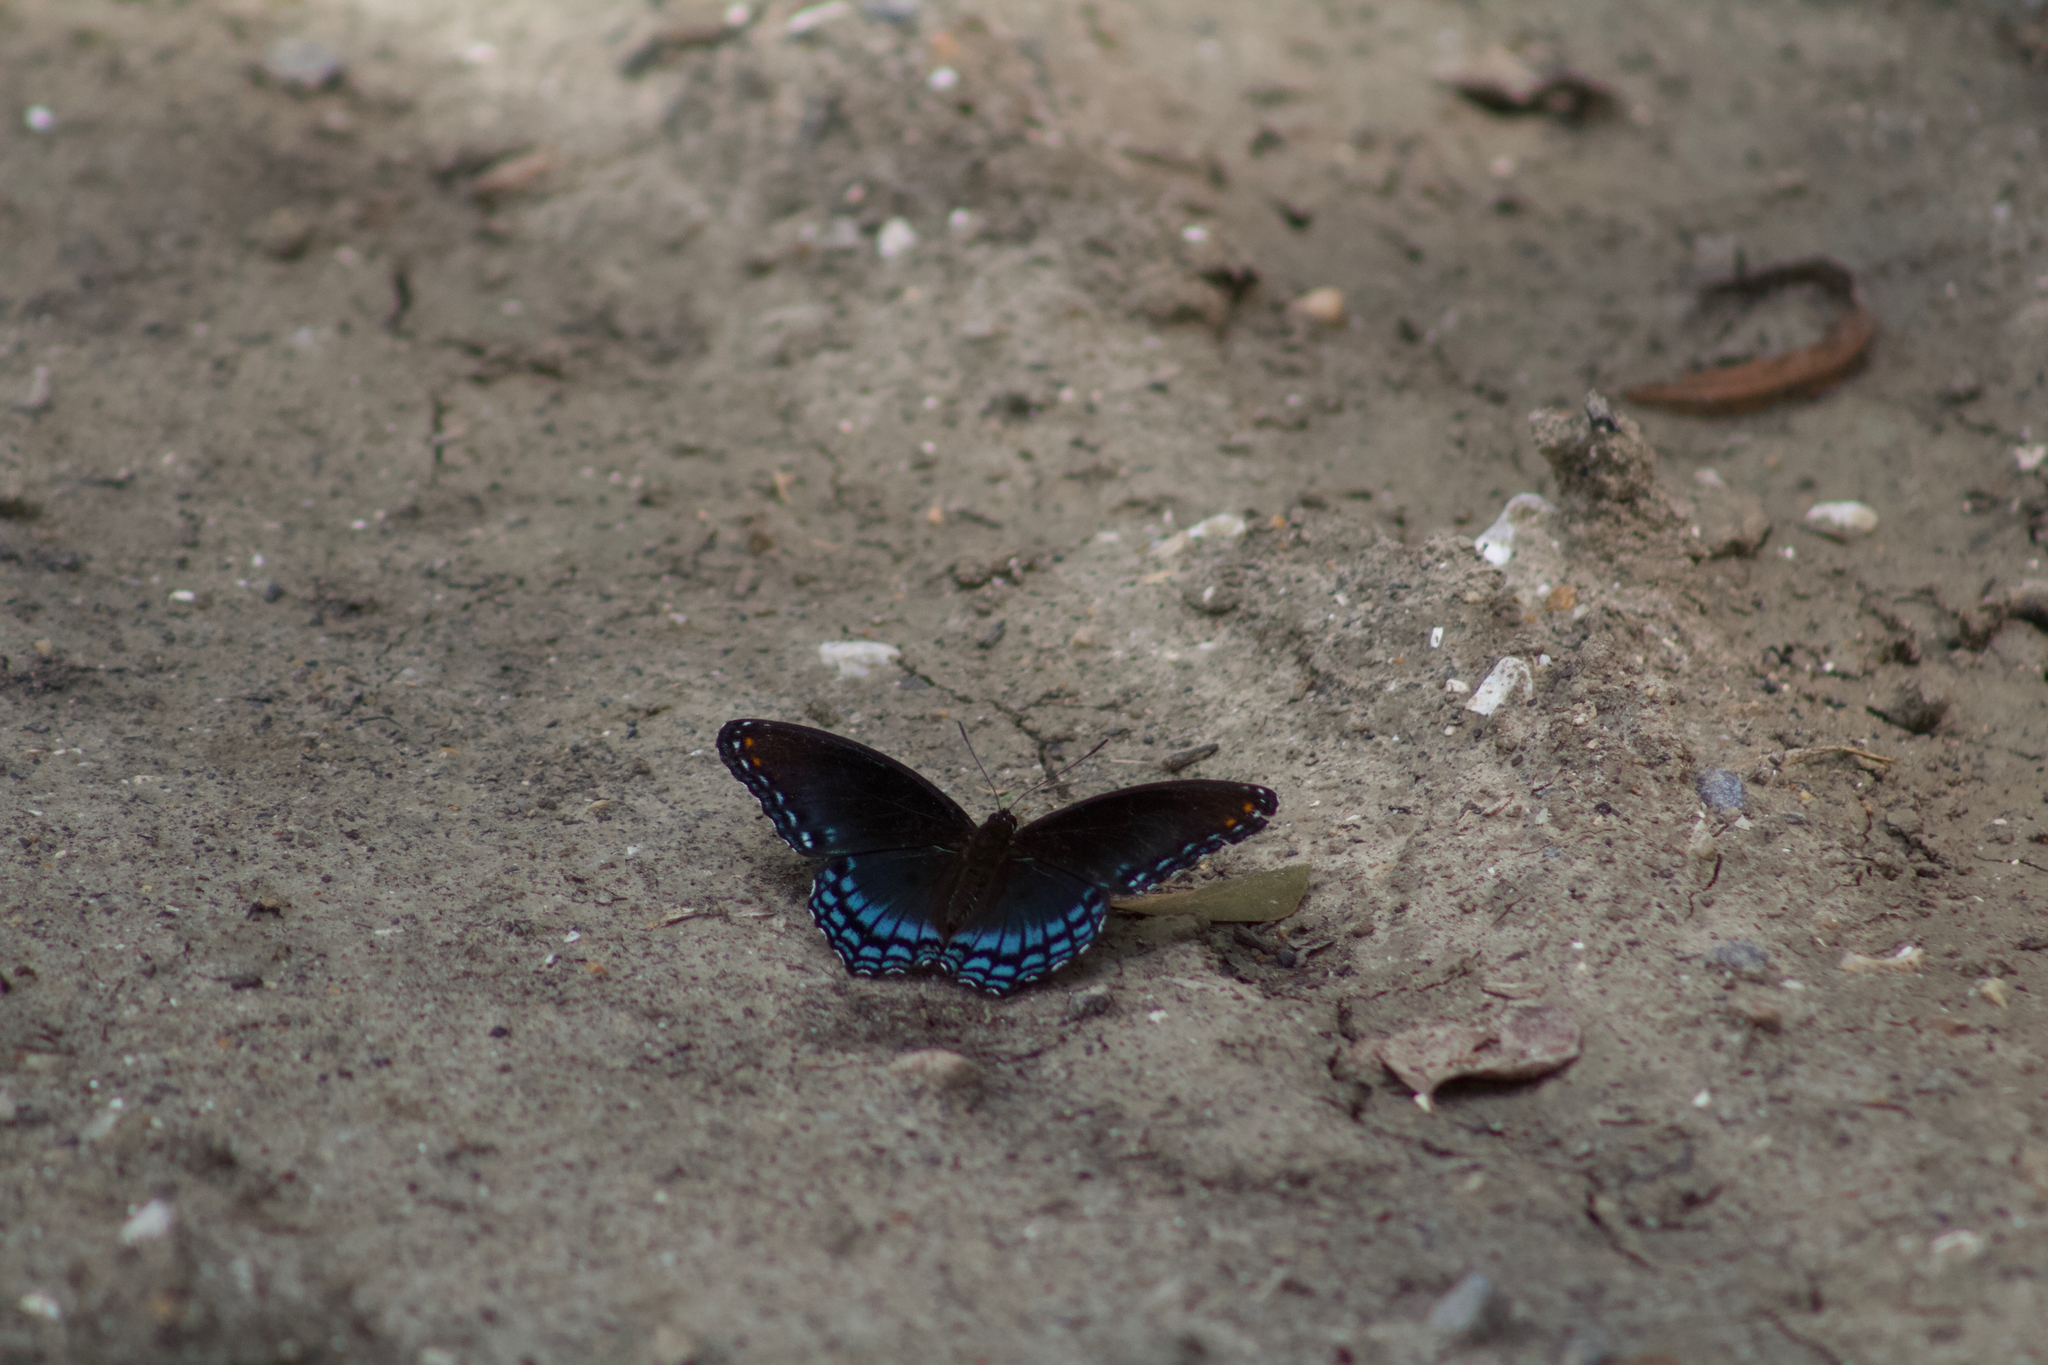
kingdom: Animalia
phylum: Arthropoda
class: Insecta
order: Lepidoptera
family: Nymphalidae
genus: Limenitis
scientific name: Limenitis arthemis
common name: Red-spotted admiral
